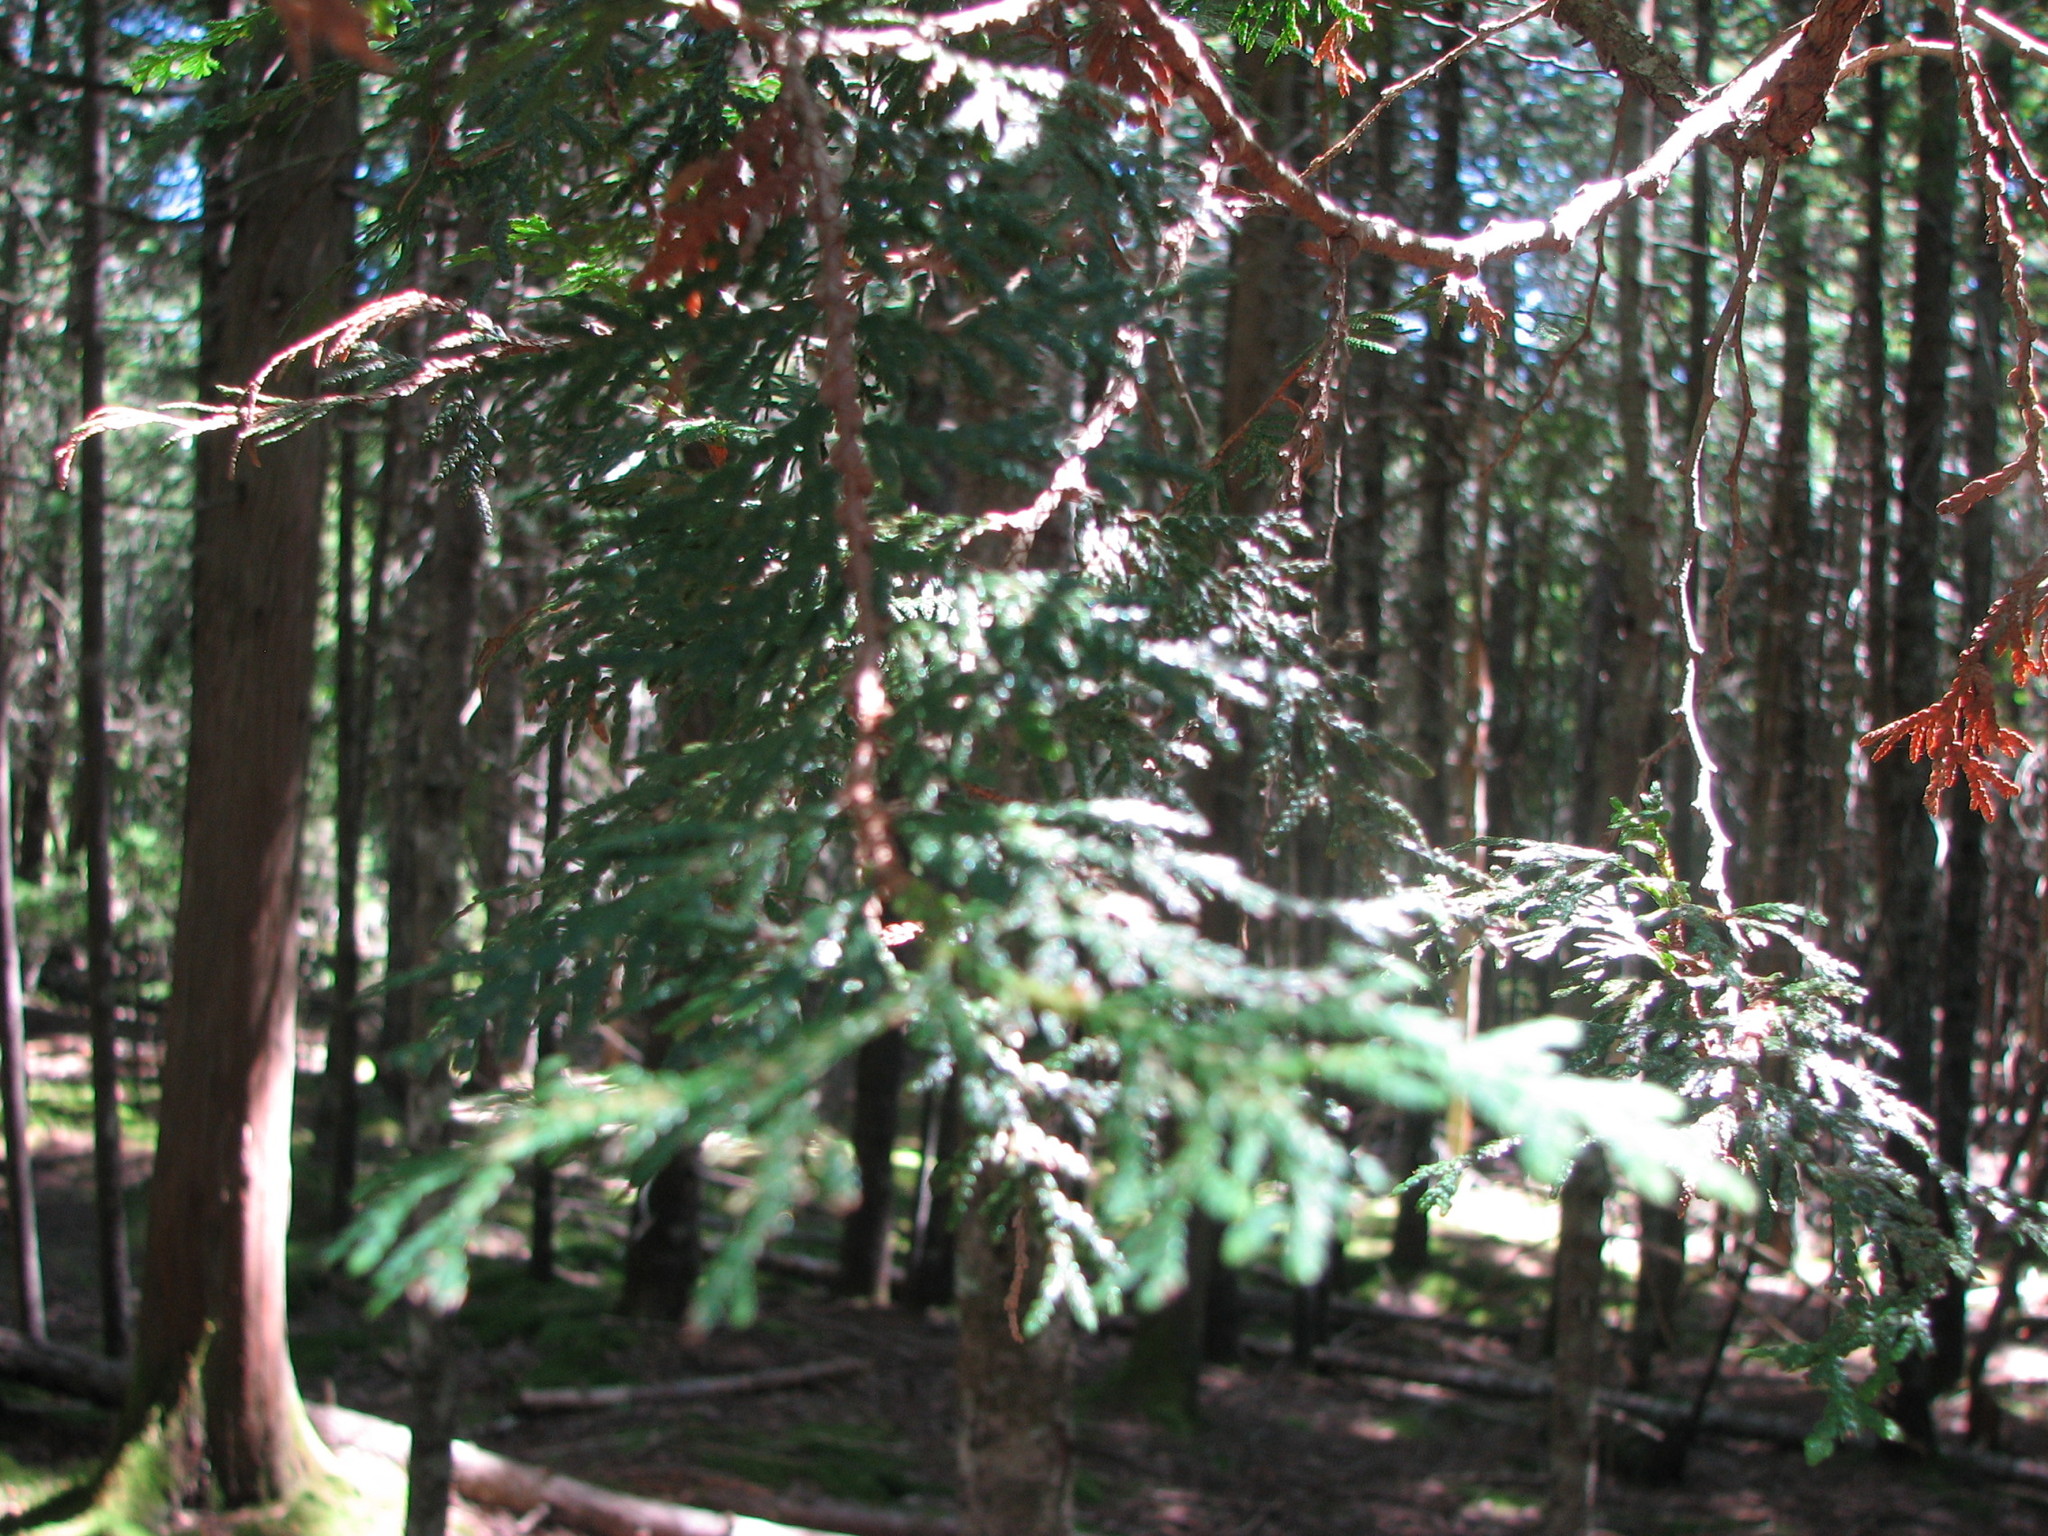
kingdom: Plantae
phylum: Tracheophyta
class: Pinopsida
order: Pinales
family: Cupressaceae
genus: Thuja
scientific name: Thuja occidentalis
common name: Northern white-cedar
